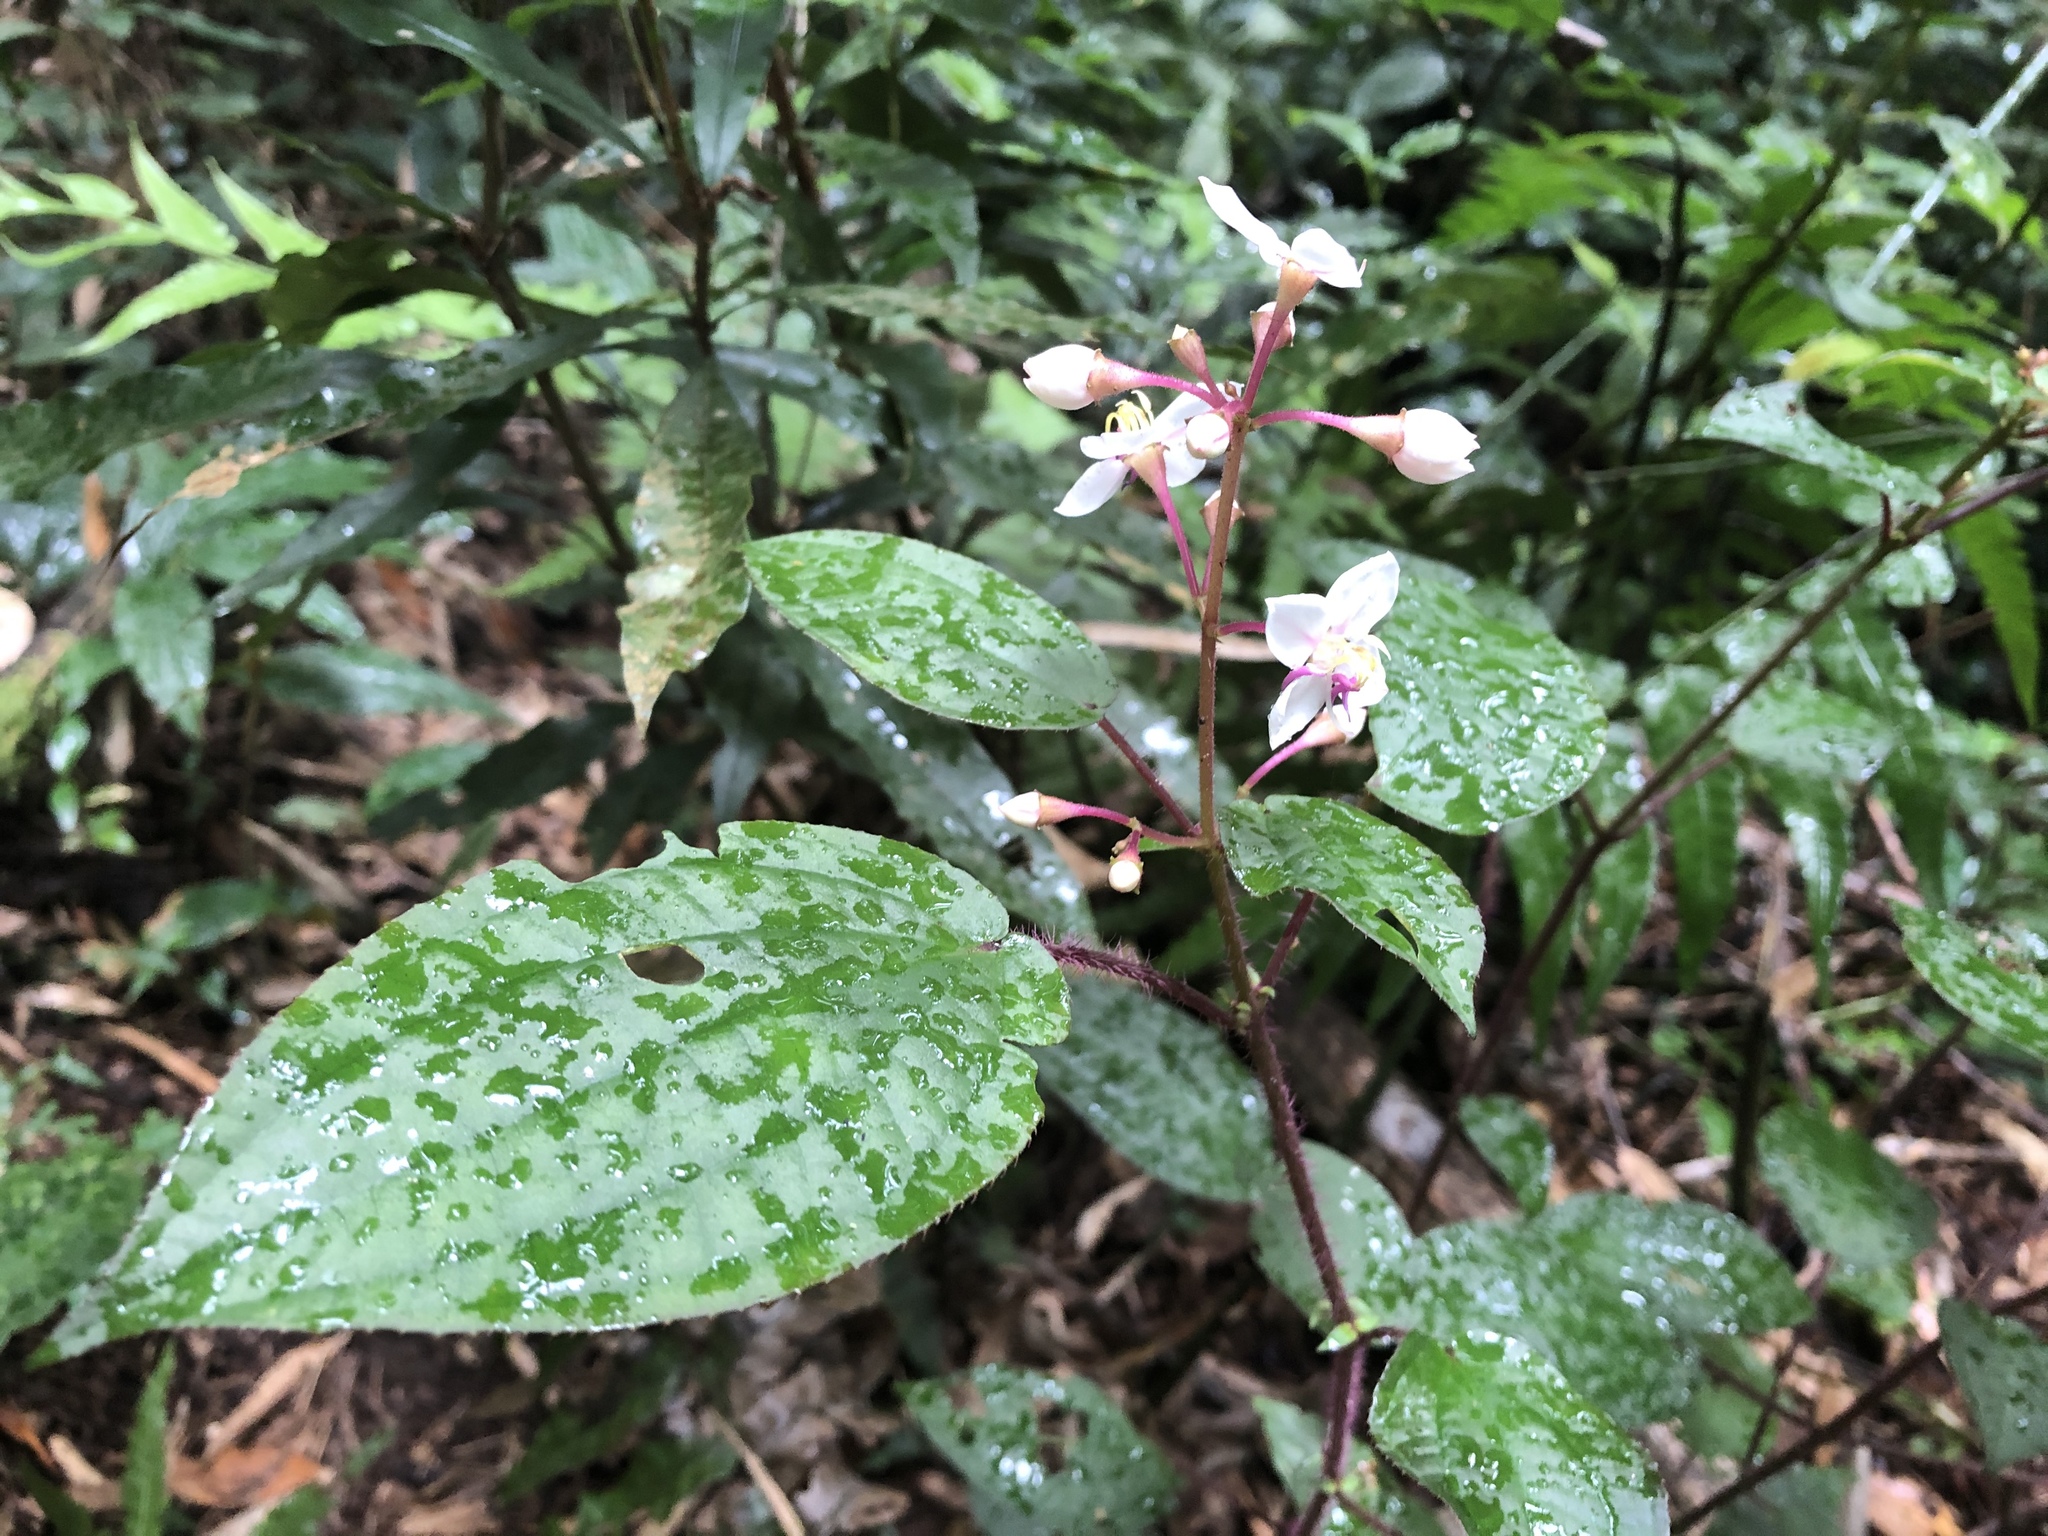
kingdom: Plantae
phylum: Tracheophyta
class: Magnoliopsida
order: Myrtales
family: Melastomataceae
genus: Bredia
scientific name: Bredia hirsuta
